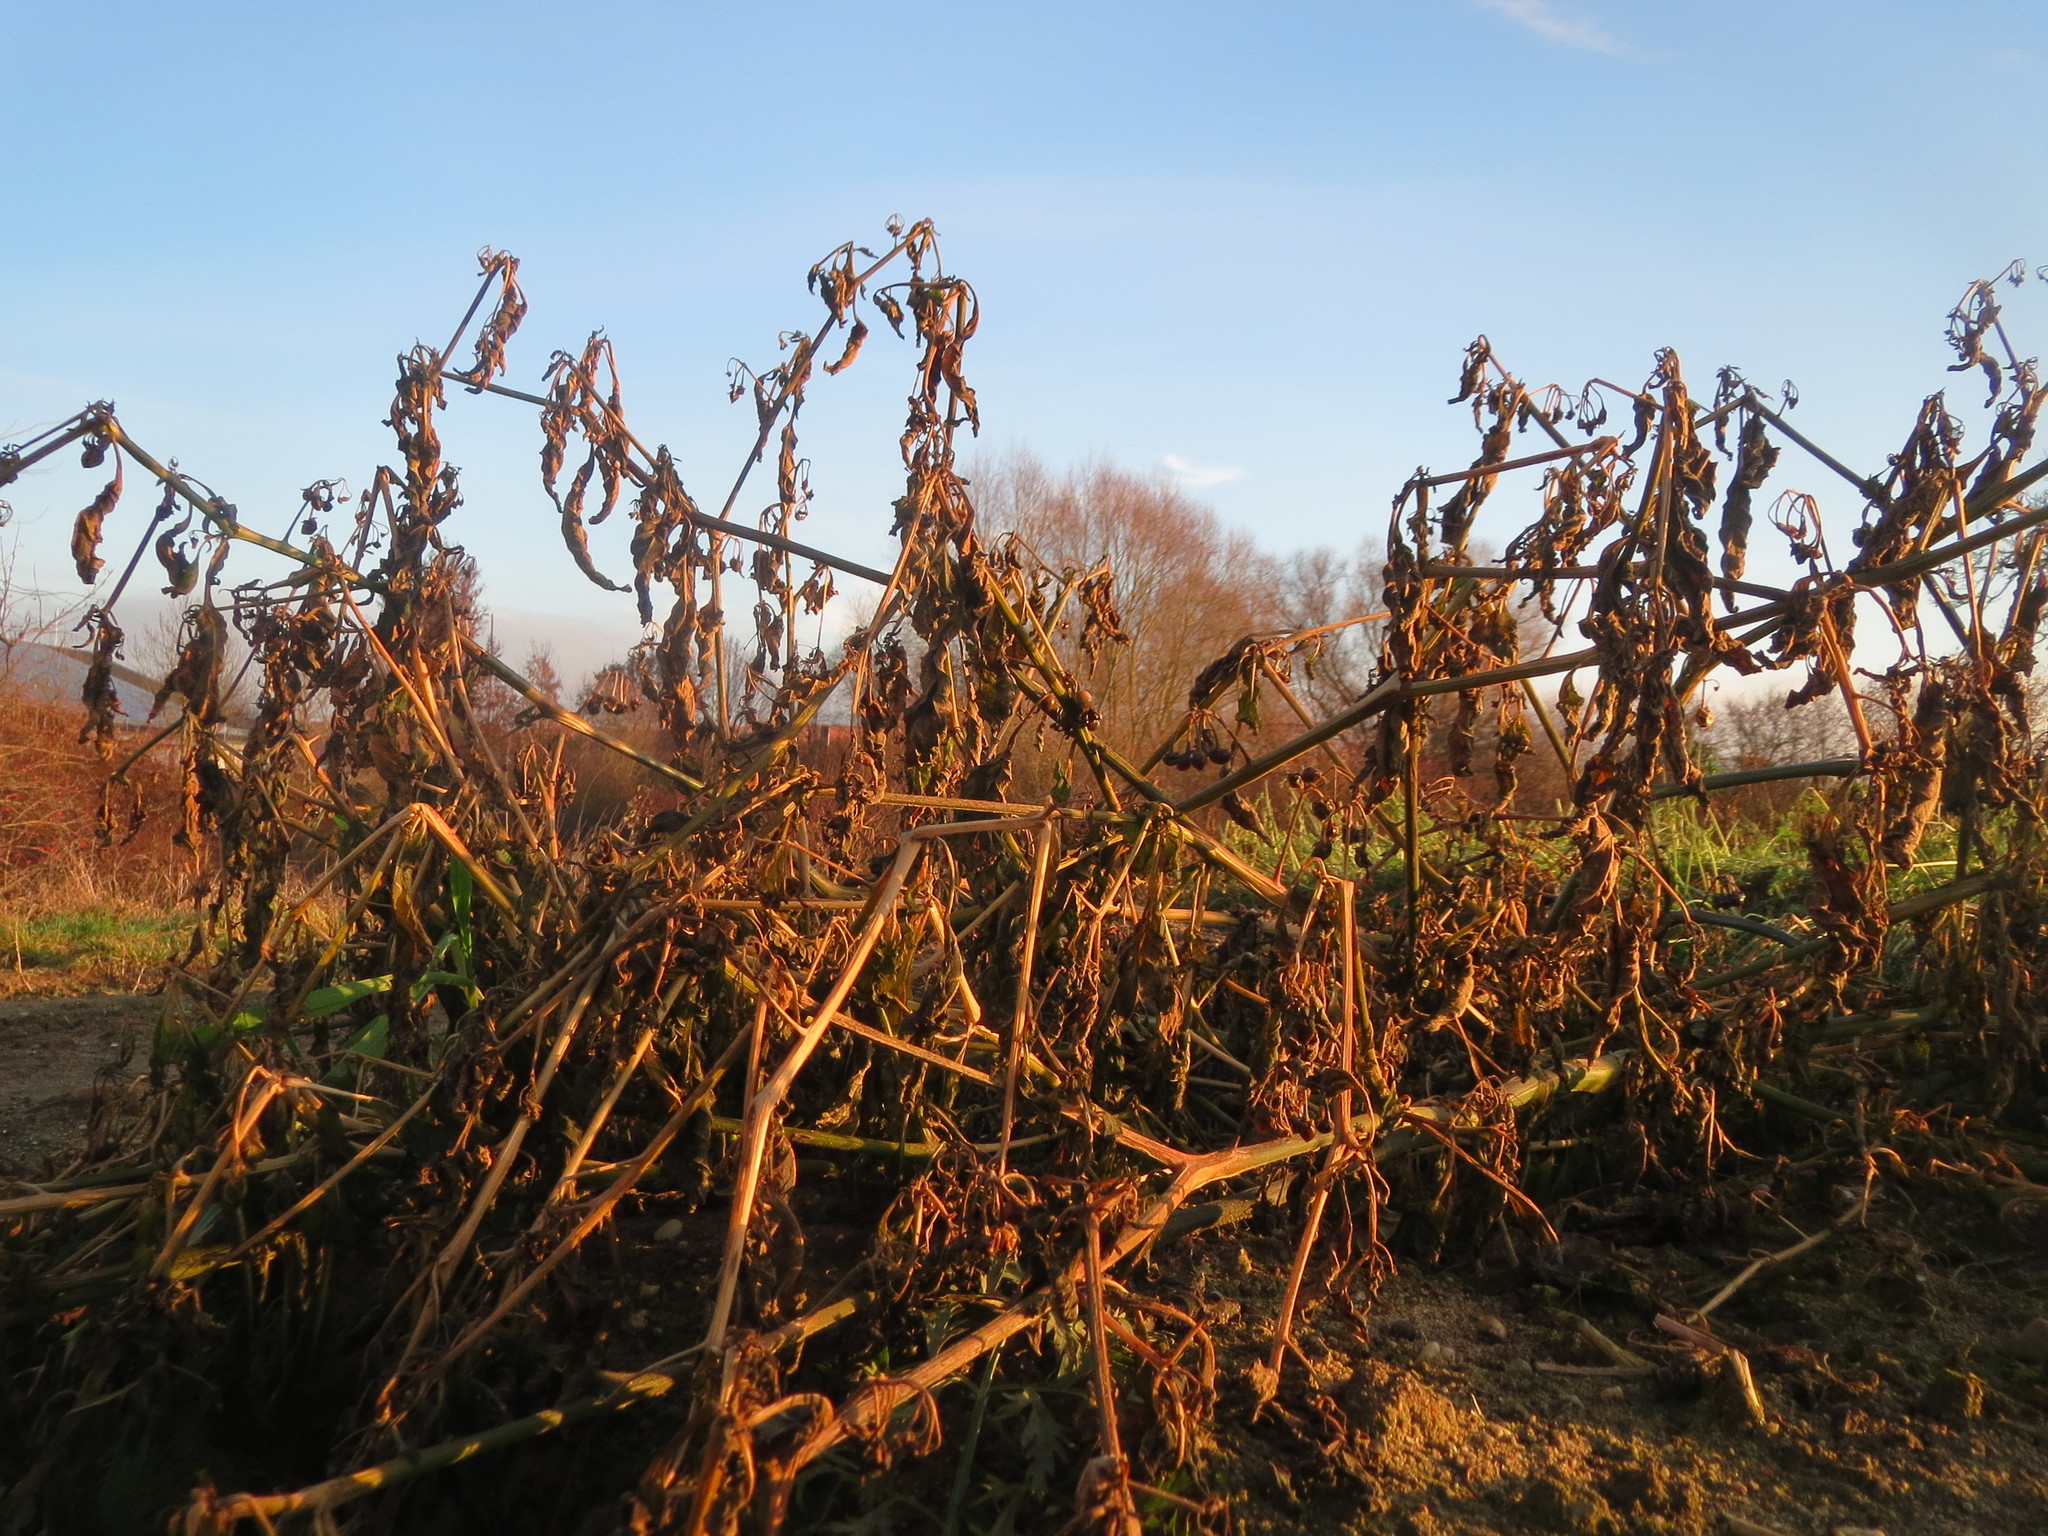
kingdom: Plantae
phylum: Tracheophyta
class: Magnoliopsida
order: Solanales
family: Solanaceae
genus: Solanum
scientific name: Solanum nigrum
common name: Black nightshade
